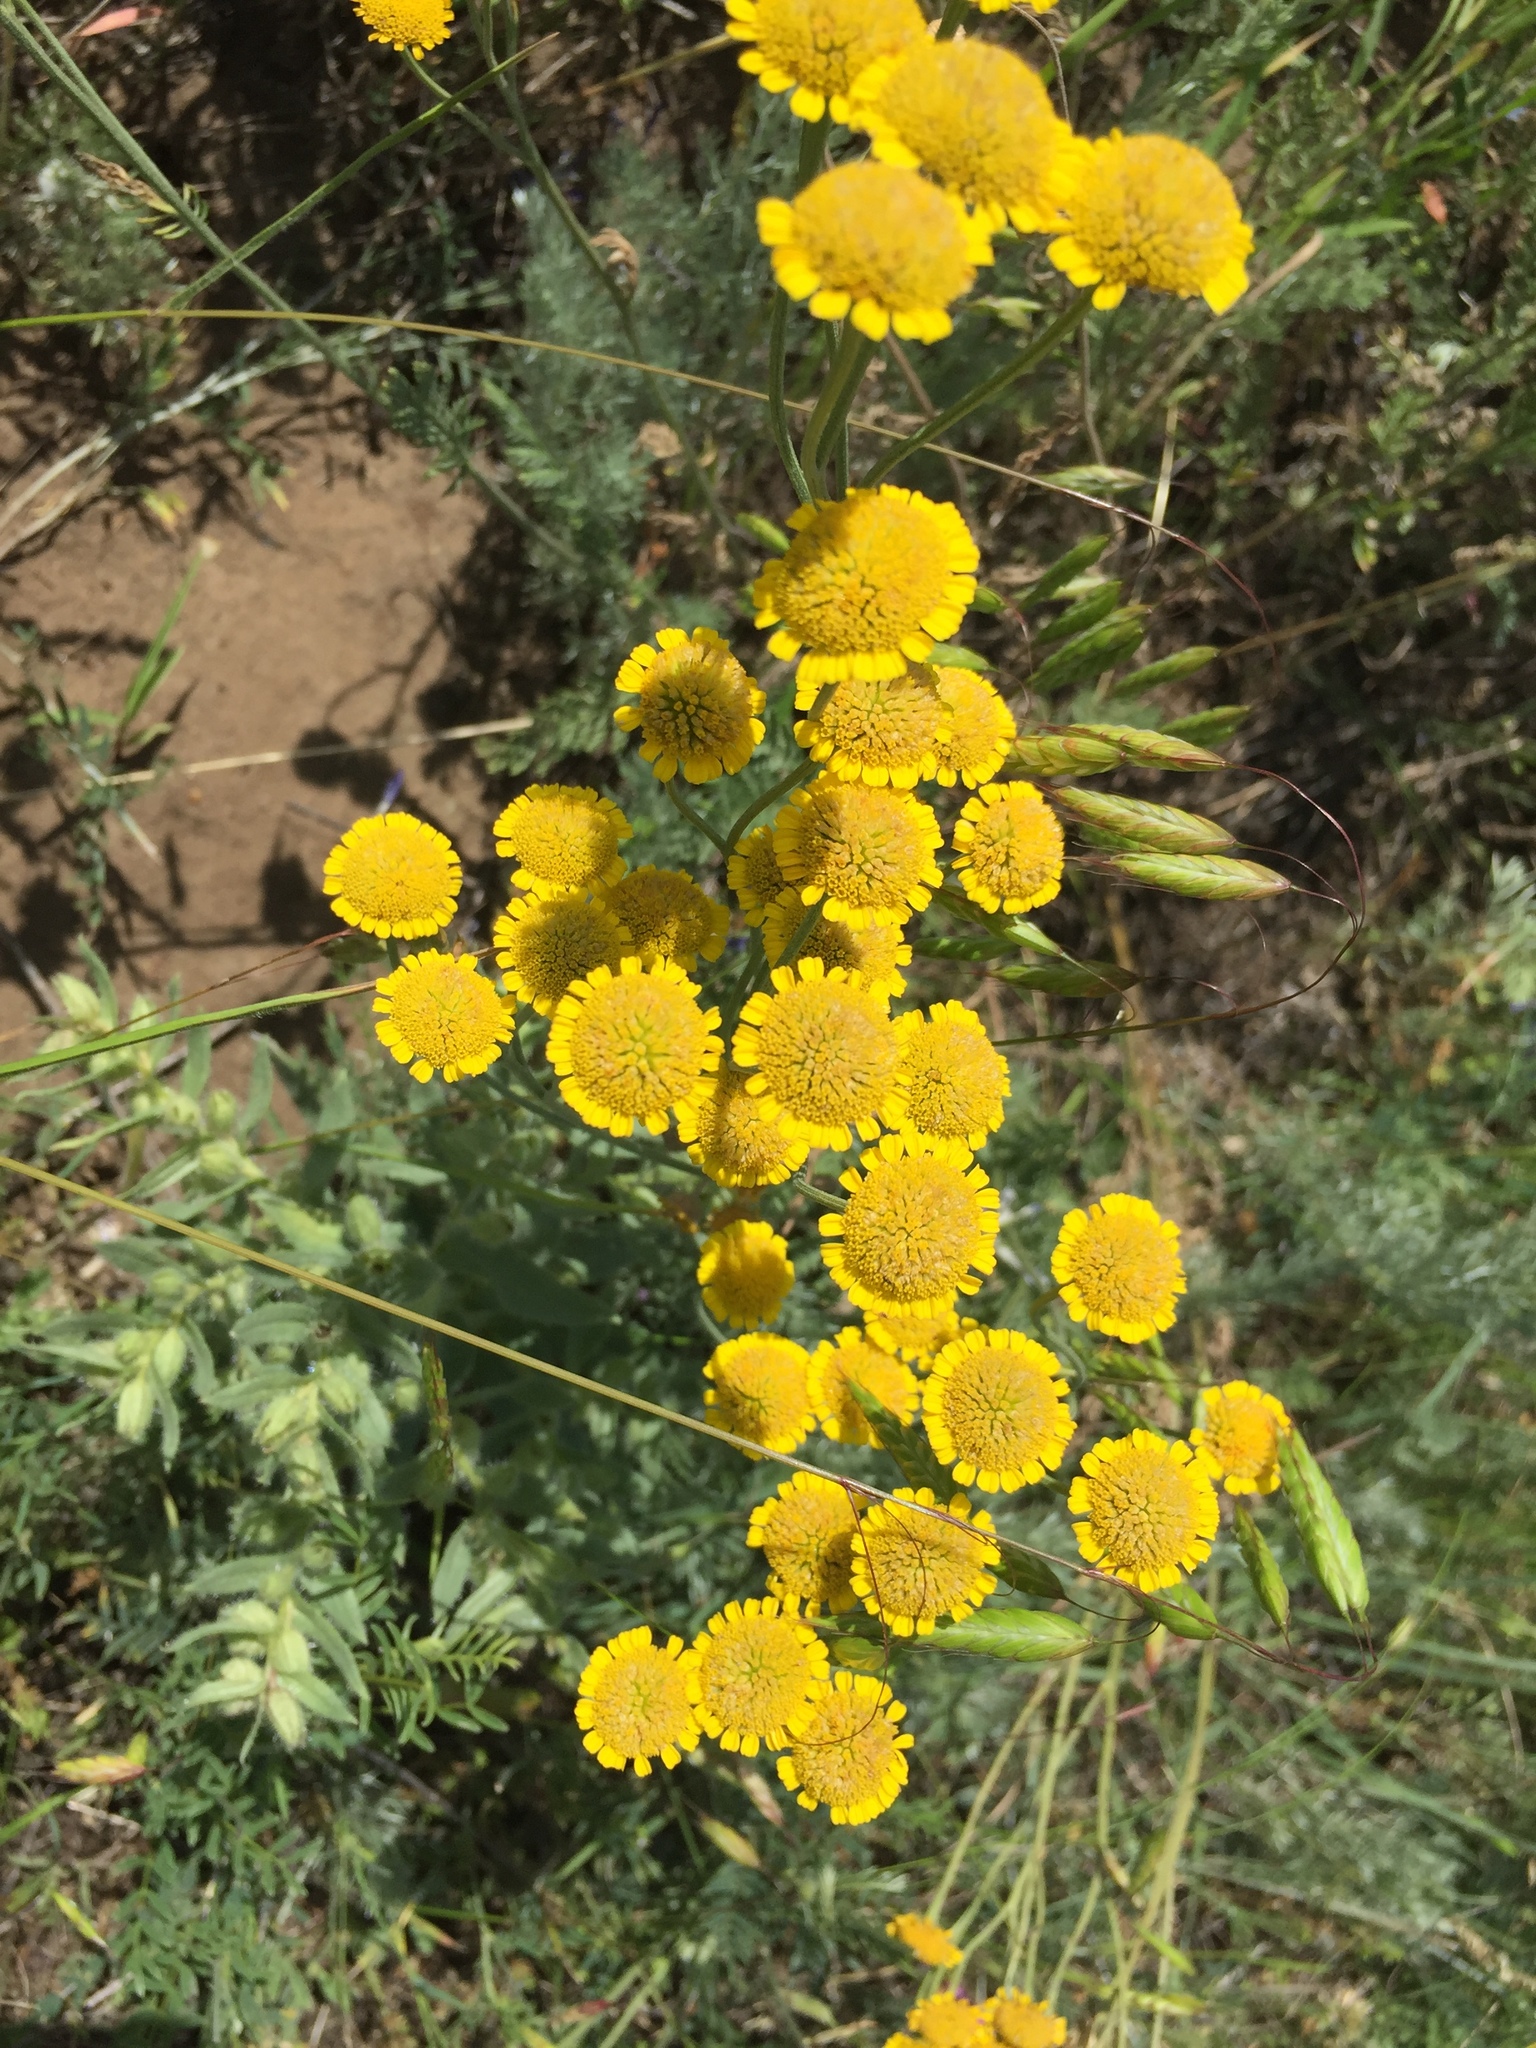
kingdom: Plantae
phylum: Tracheophyta
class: Magnoliopsida
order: Asterales
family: Asteraceae
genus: Tanacetum
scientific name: Tanacetum achilleifolium
